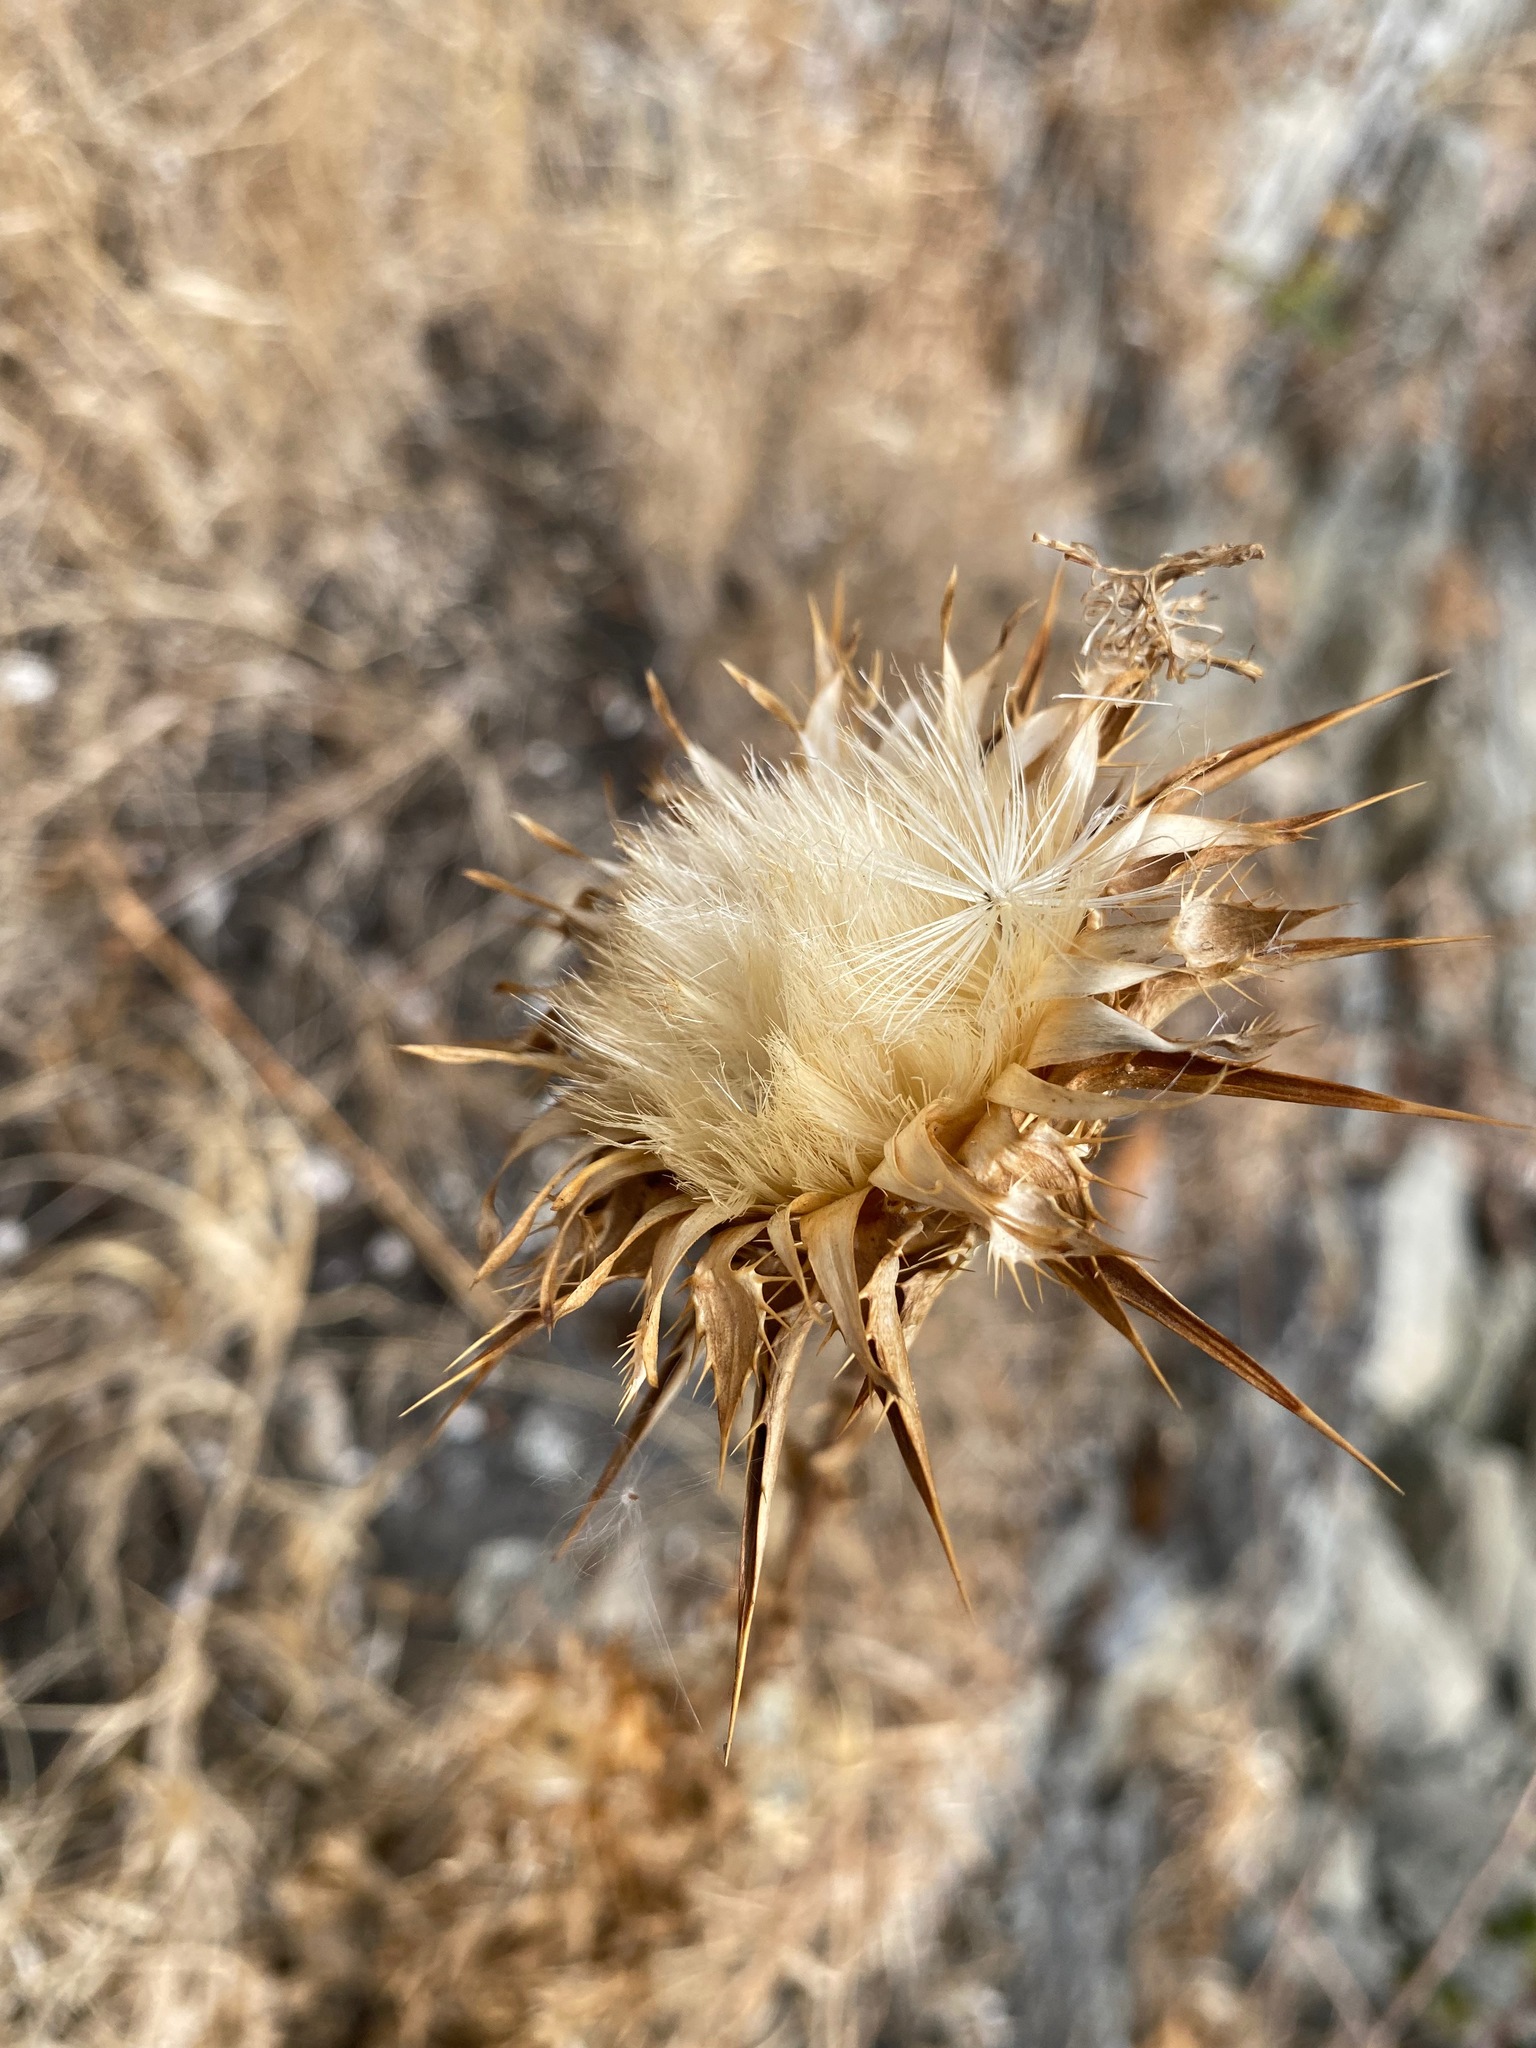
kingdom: Plantae
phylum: Tracheophyta
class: Magnoliopsida
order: Asterales
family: Asteraceae
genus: Silybum
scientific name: Silybum marianum
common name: Milk thistle
